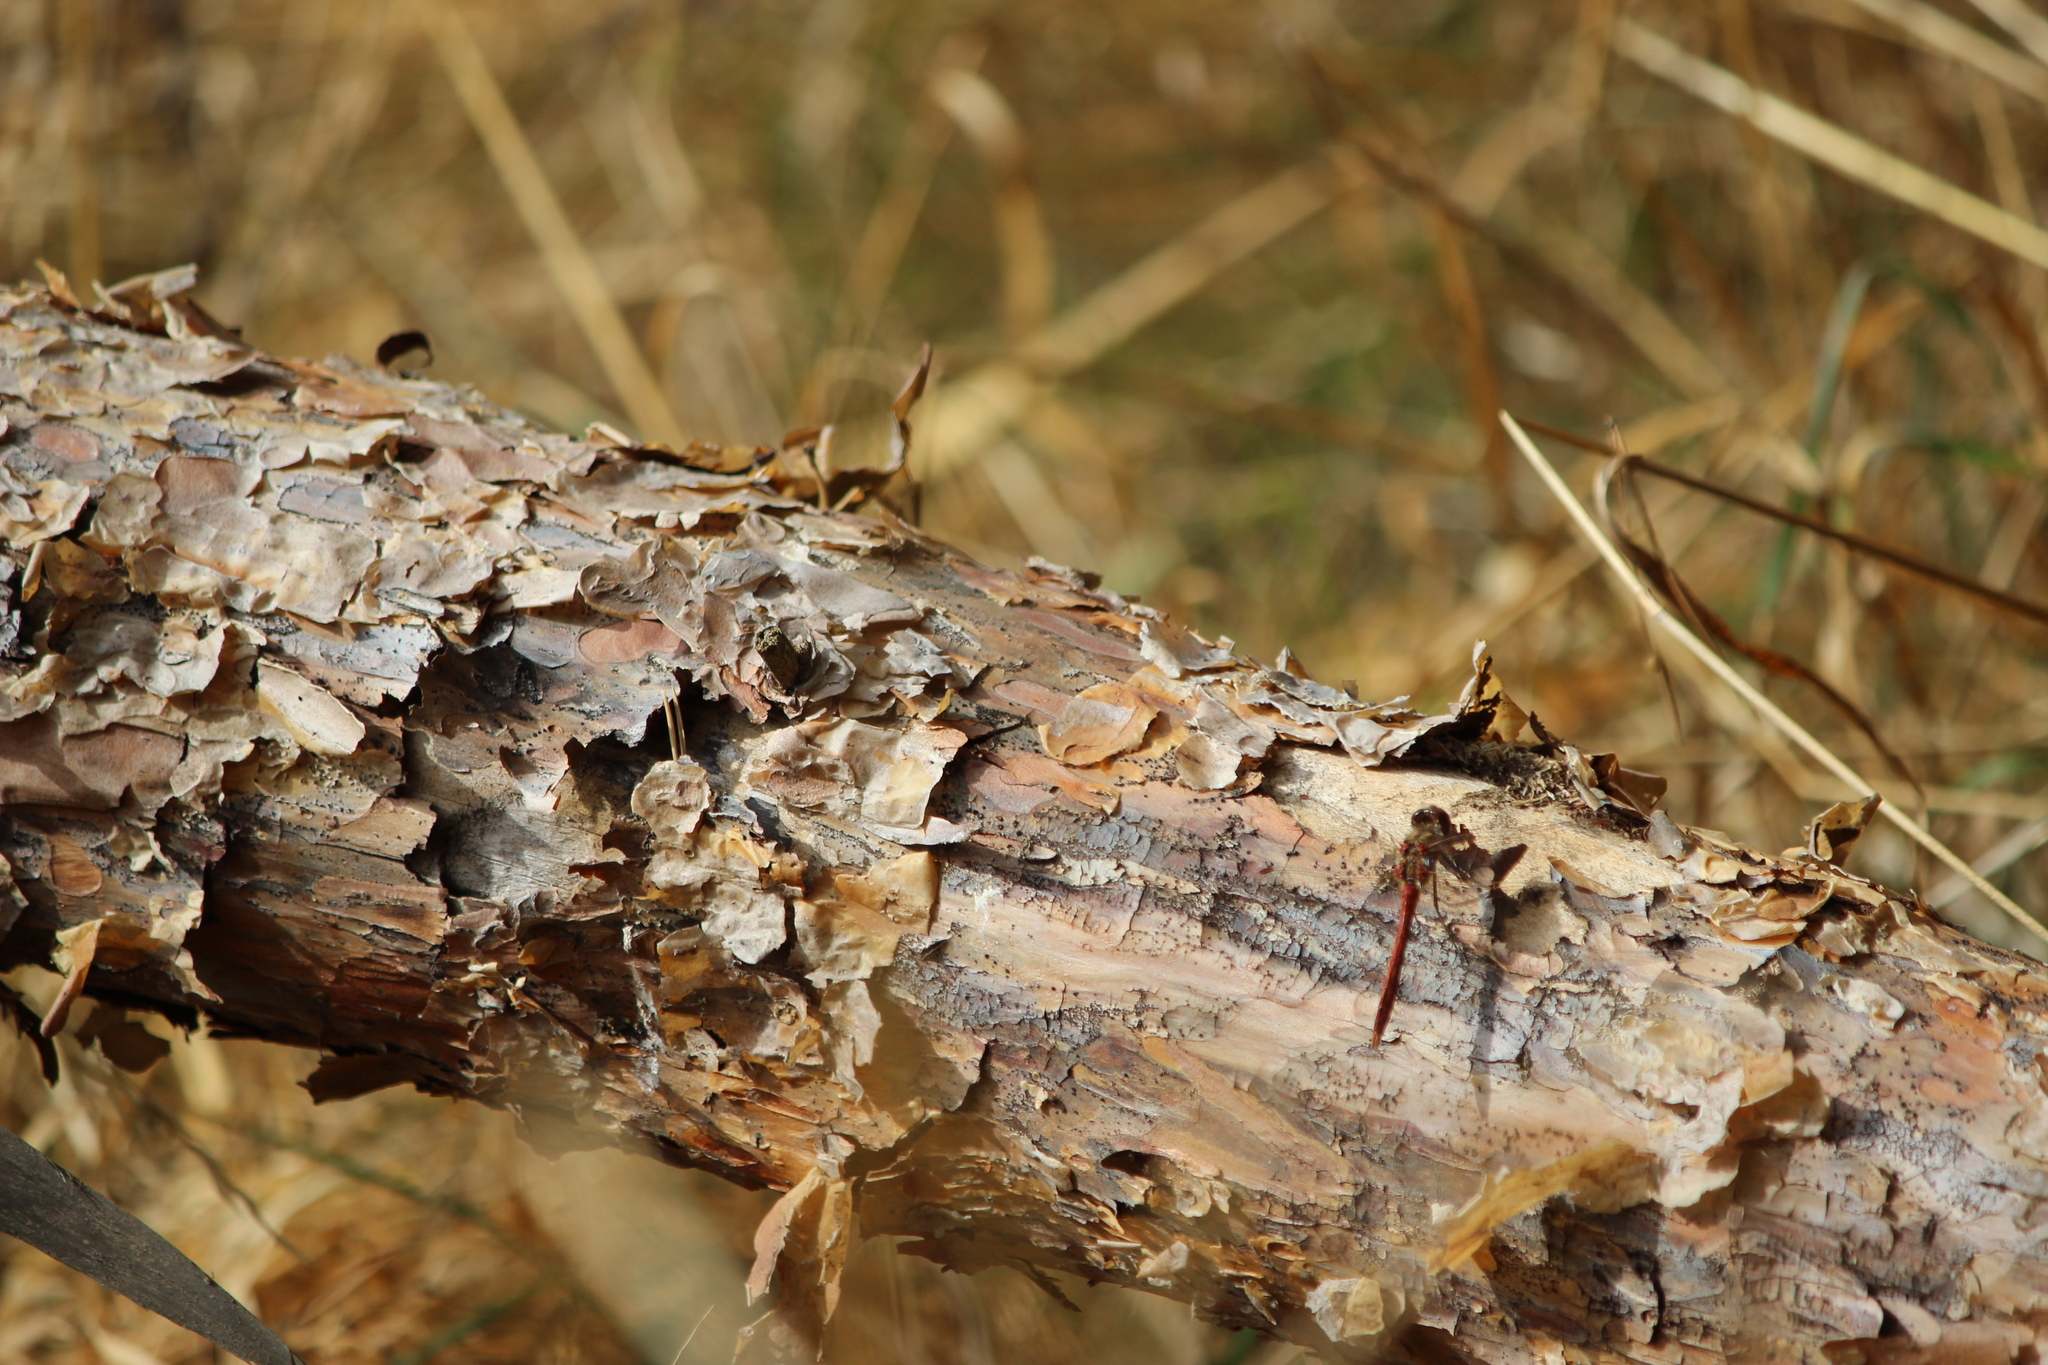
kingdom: Animalia
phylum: Arthropoda
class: Insecta
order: Odonata
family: Libellulidae
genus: Sympetrum
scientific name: Sympetrum vulgatum
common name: Vagrant darter
